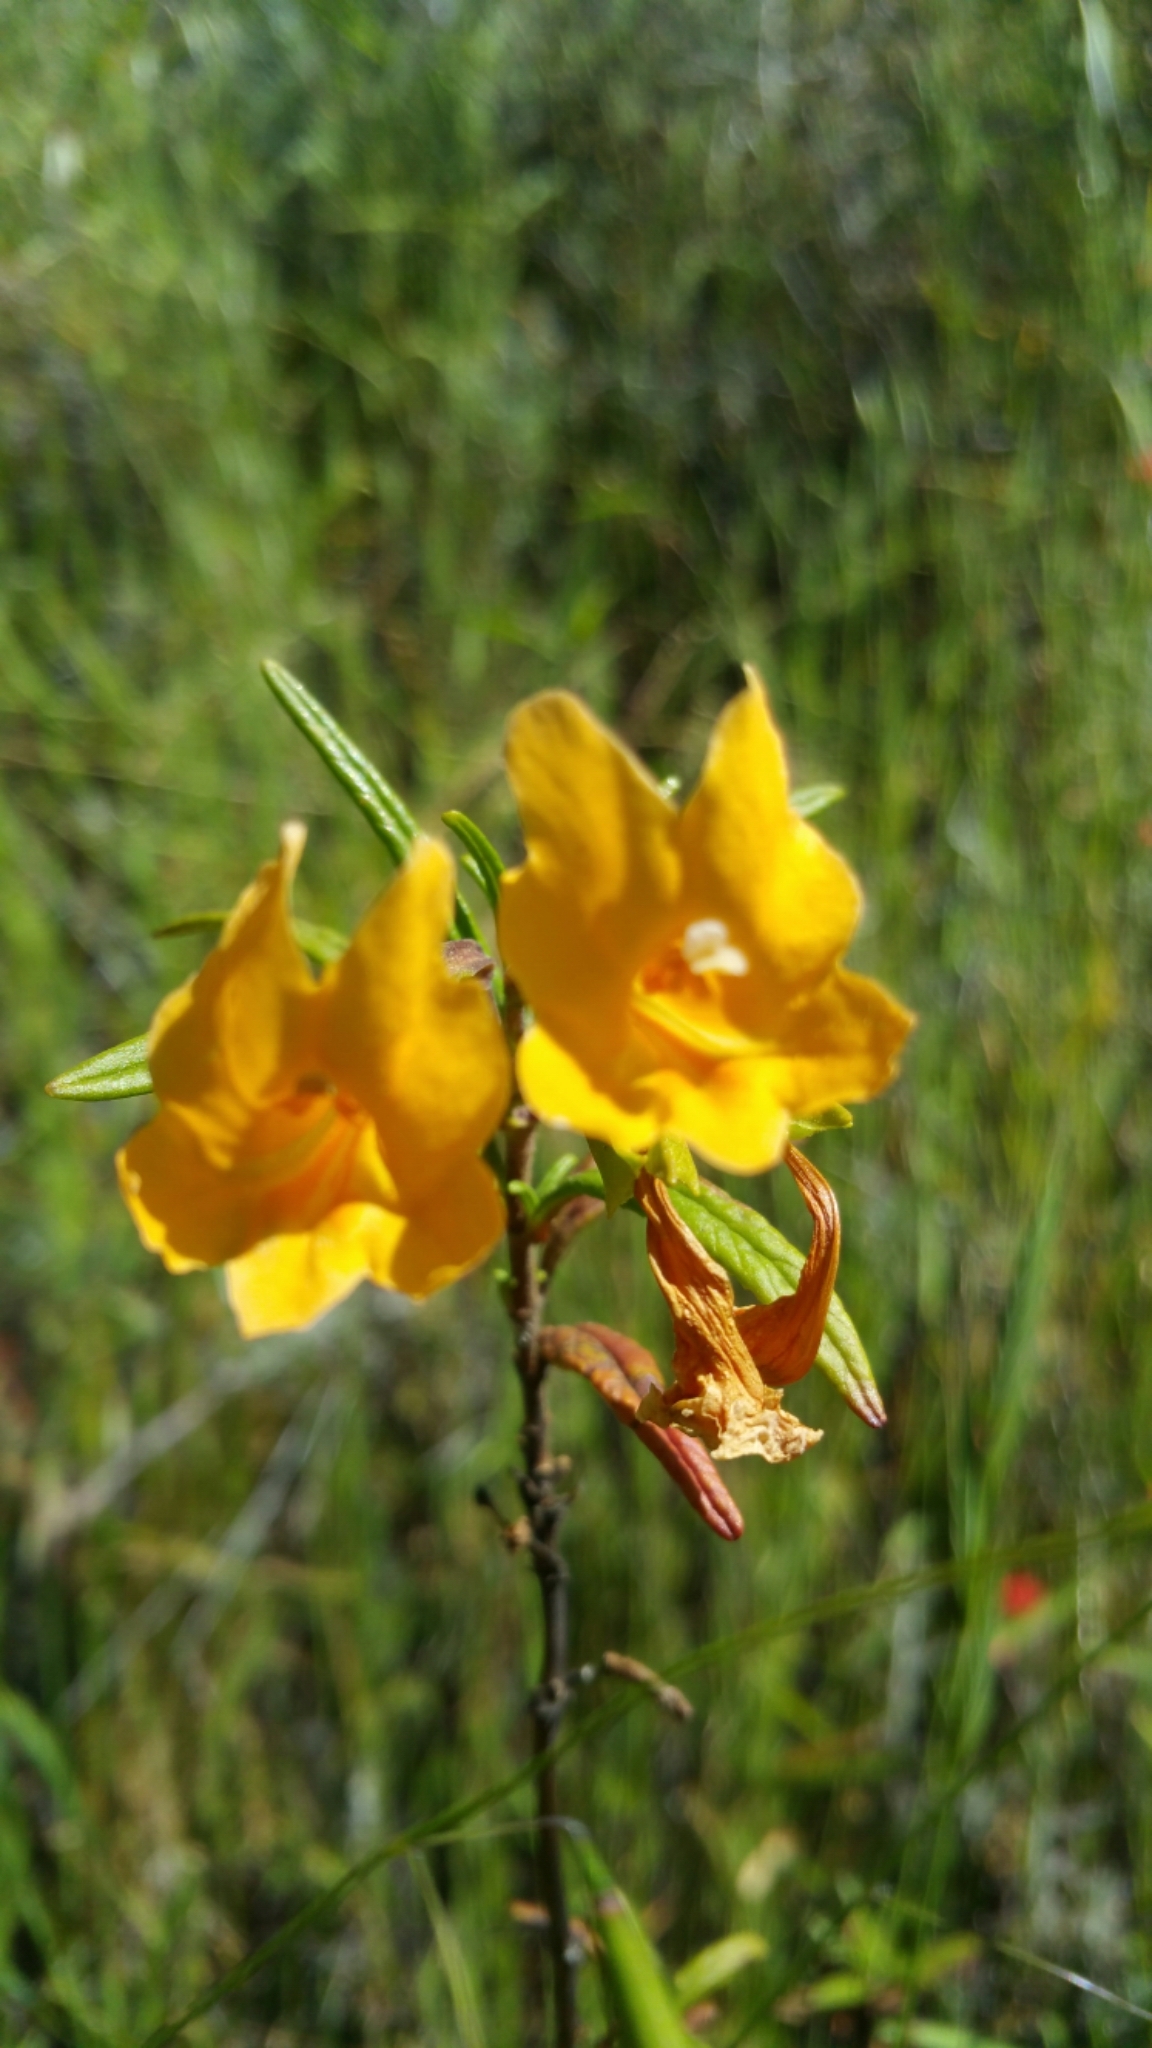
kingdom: Plantae
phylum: Tracheophyta
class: Magnoliopsida
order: Lamiales
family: Phrymaceae
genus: Diplacus
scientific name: Diplacus aurantiacus
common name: Bush monkey-flower
